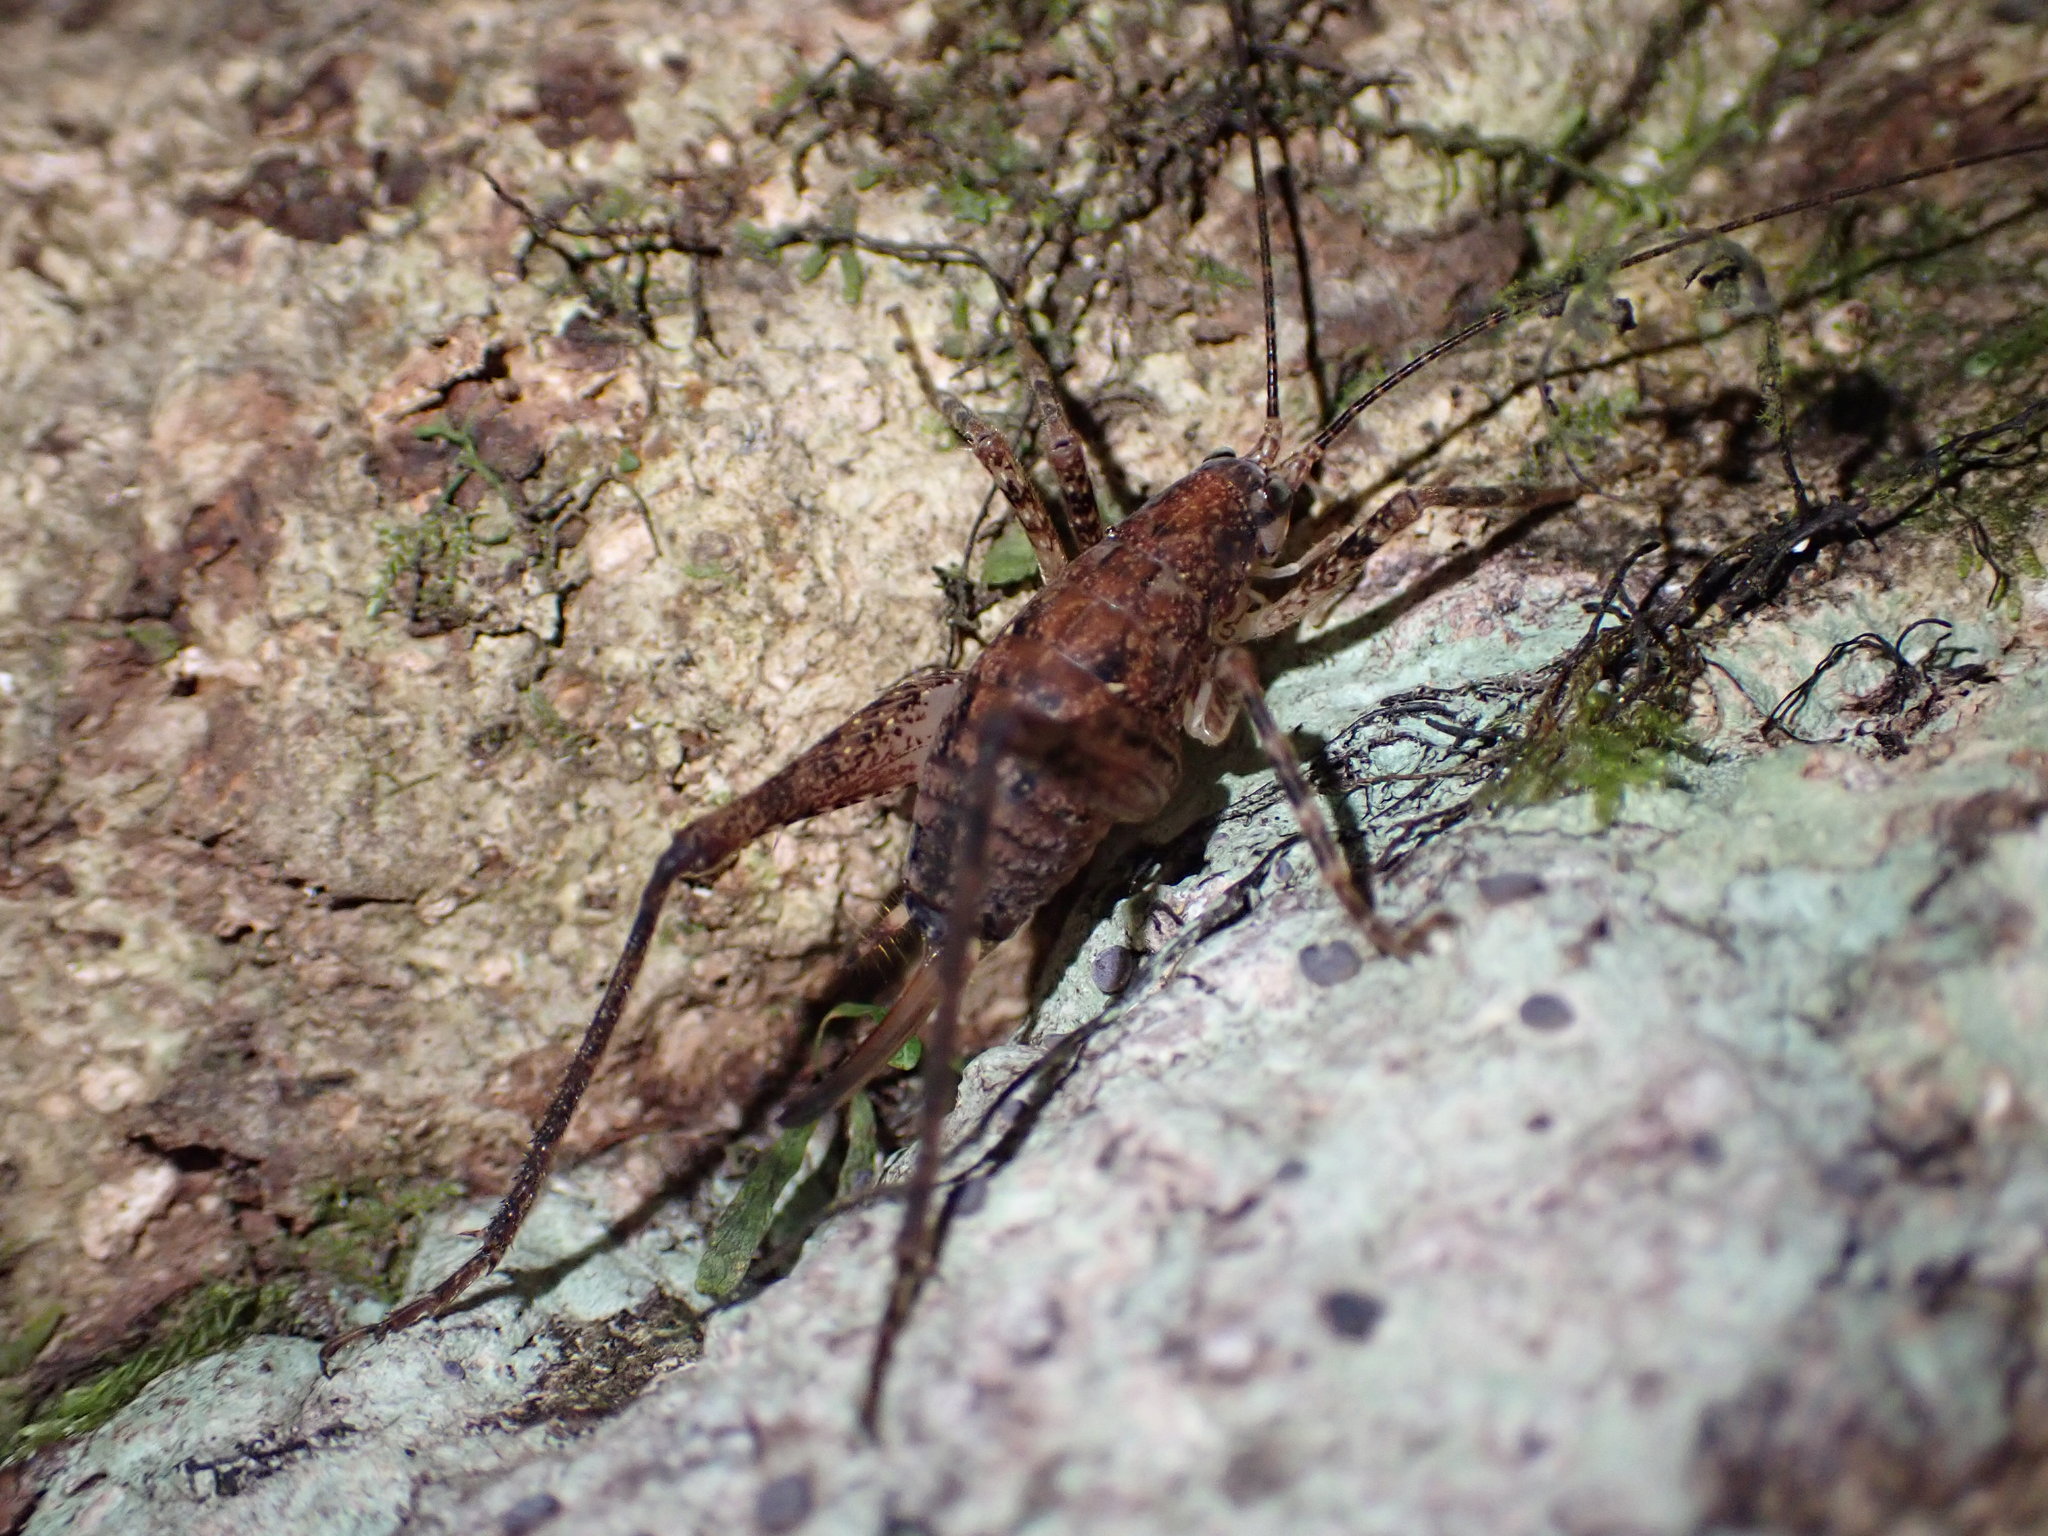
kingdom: Animalia
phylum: Arthropoda
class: Insecta
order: Orthoptera
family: Rhaphidophoridae
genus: Isoplectron
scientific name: Isoplectron armatum
